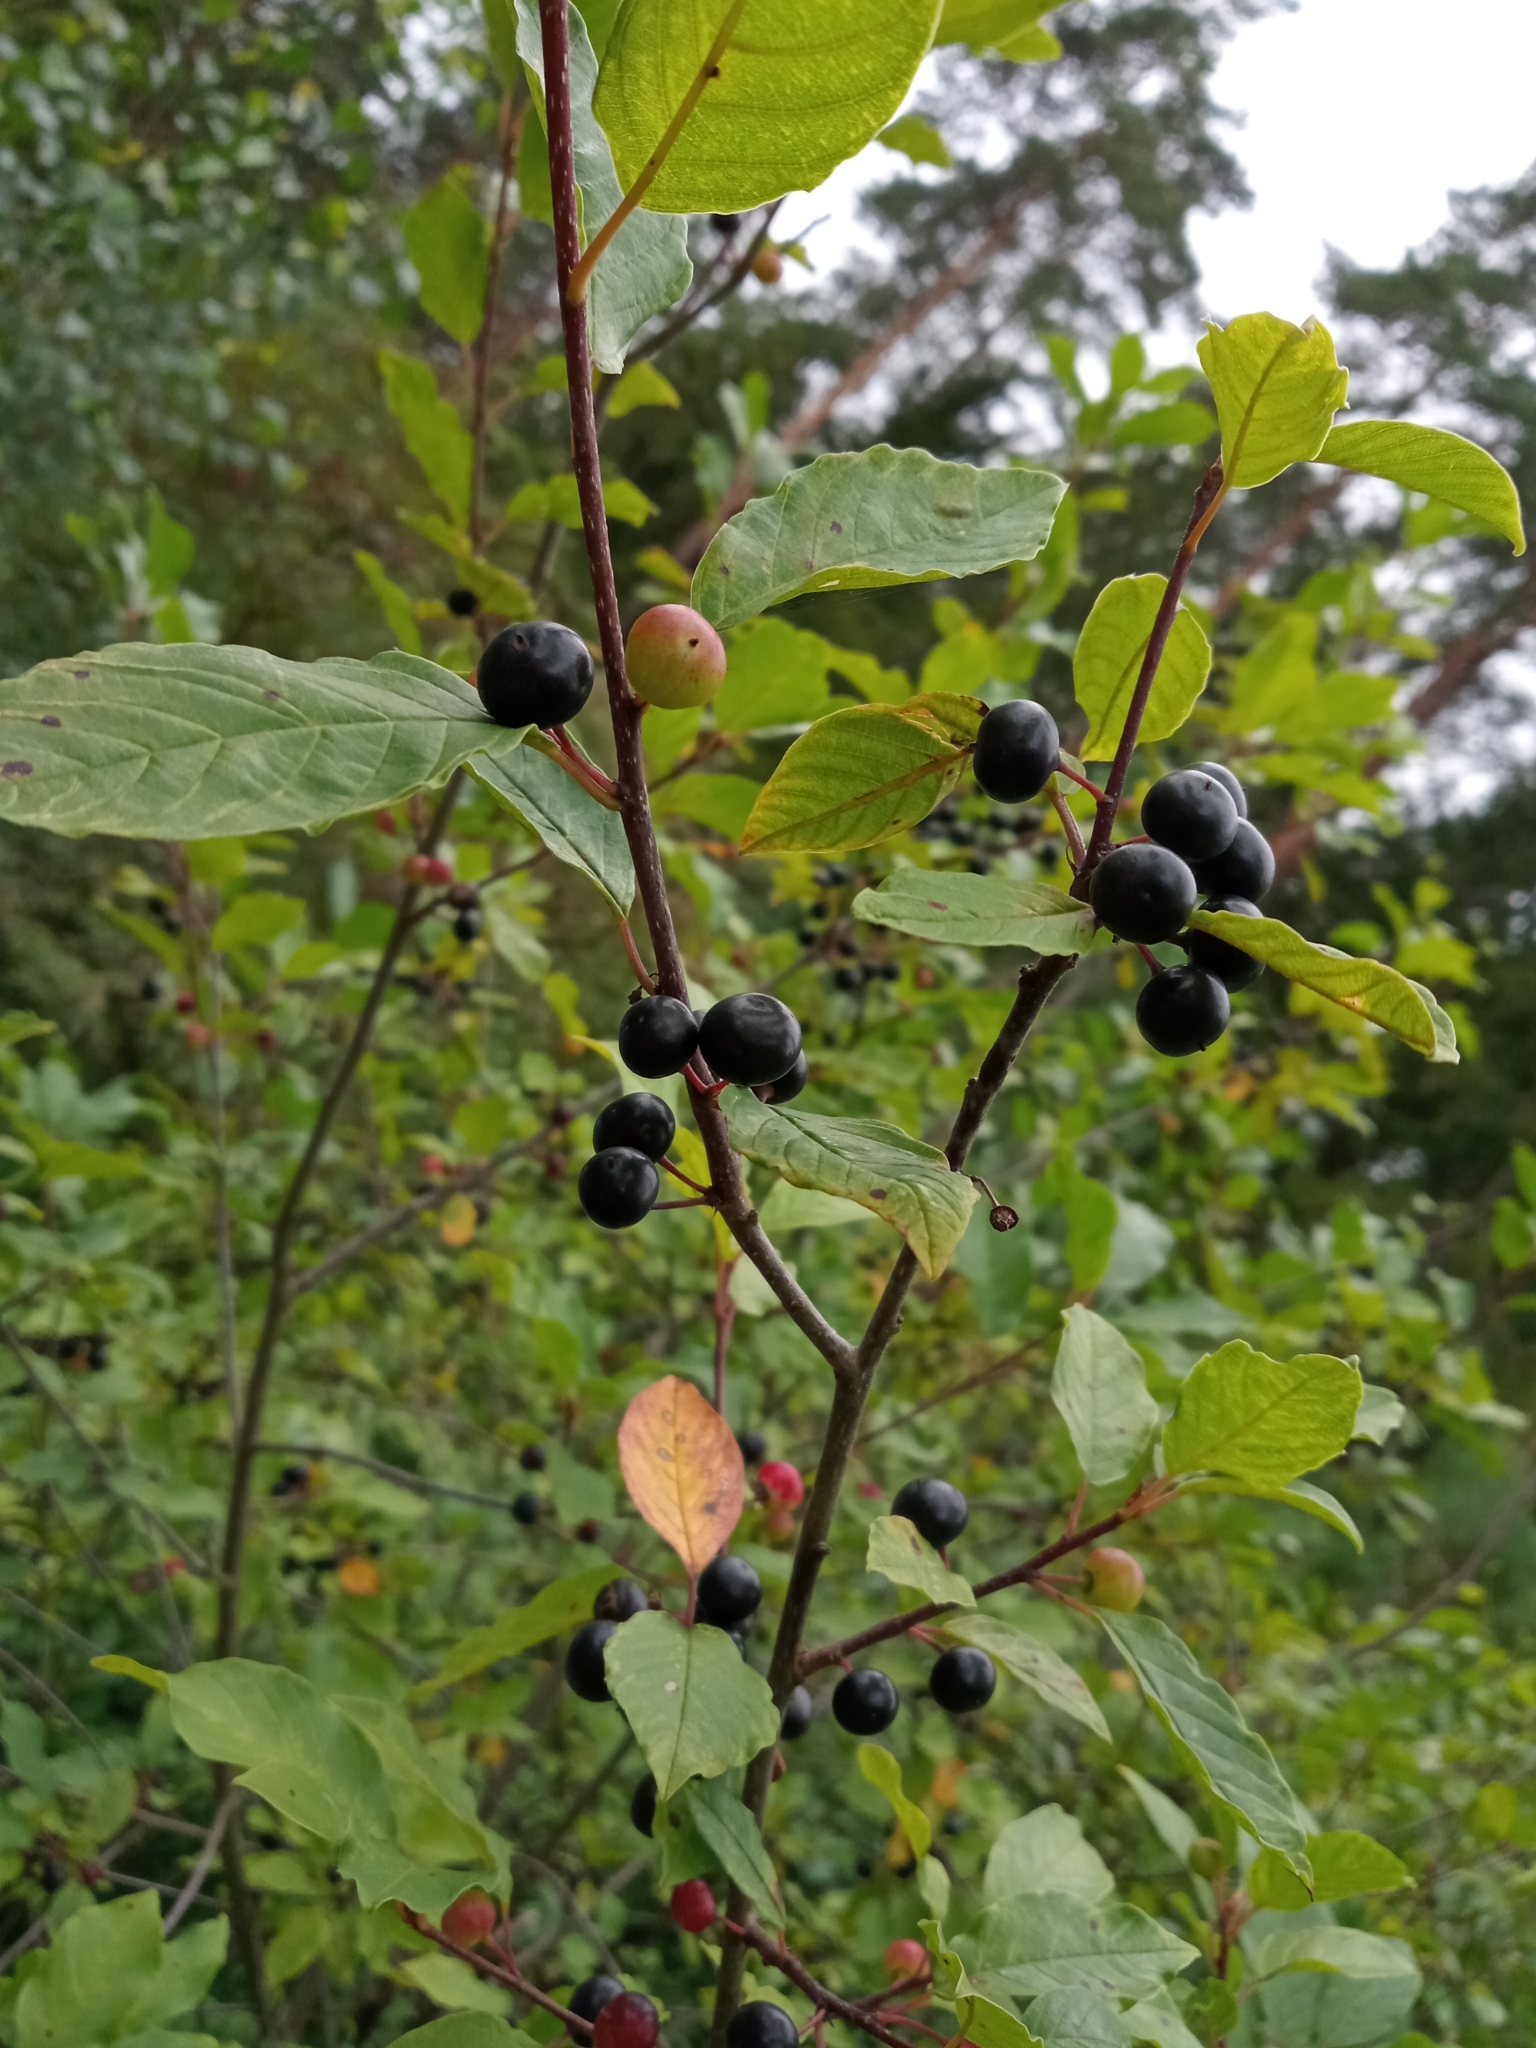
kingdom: Plantae
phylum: Tracheophyta
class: Magnoliopsida
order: Rosales
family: Rhamnaceae
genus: Frangula
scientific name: Frangula alnus
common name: Alder buckthorn
